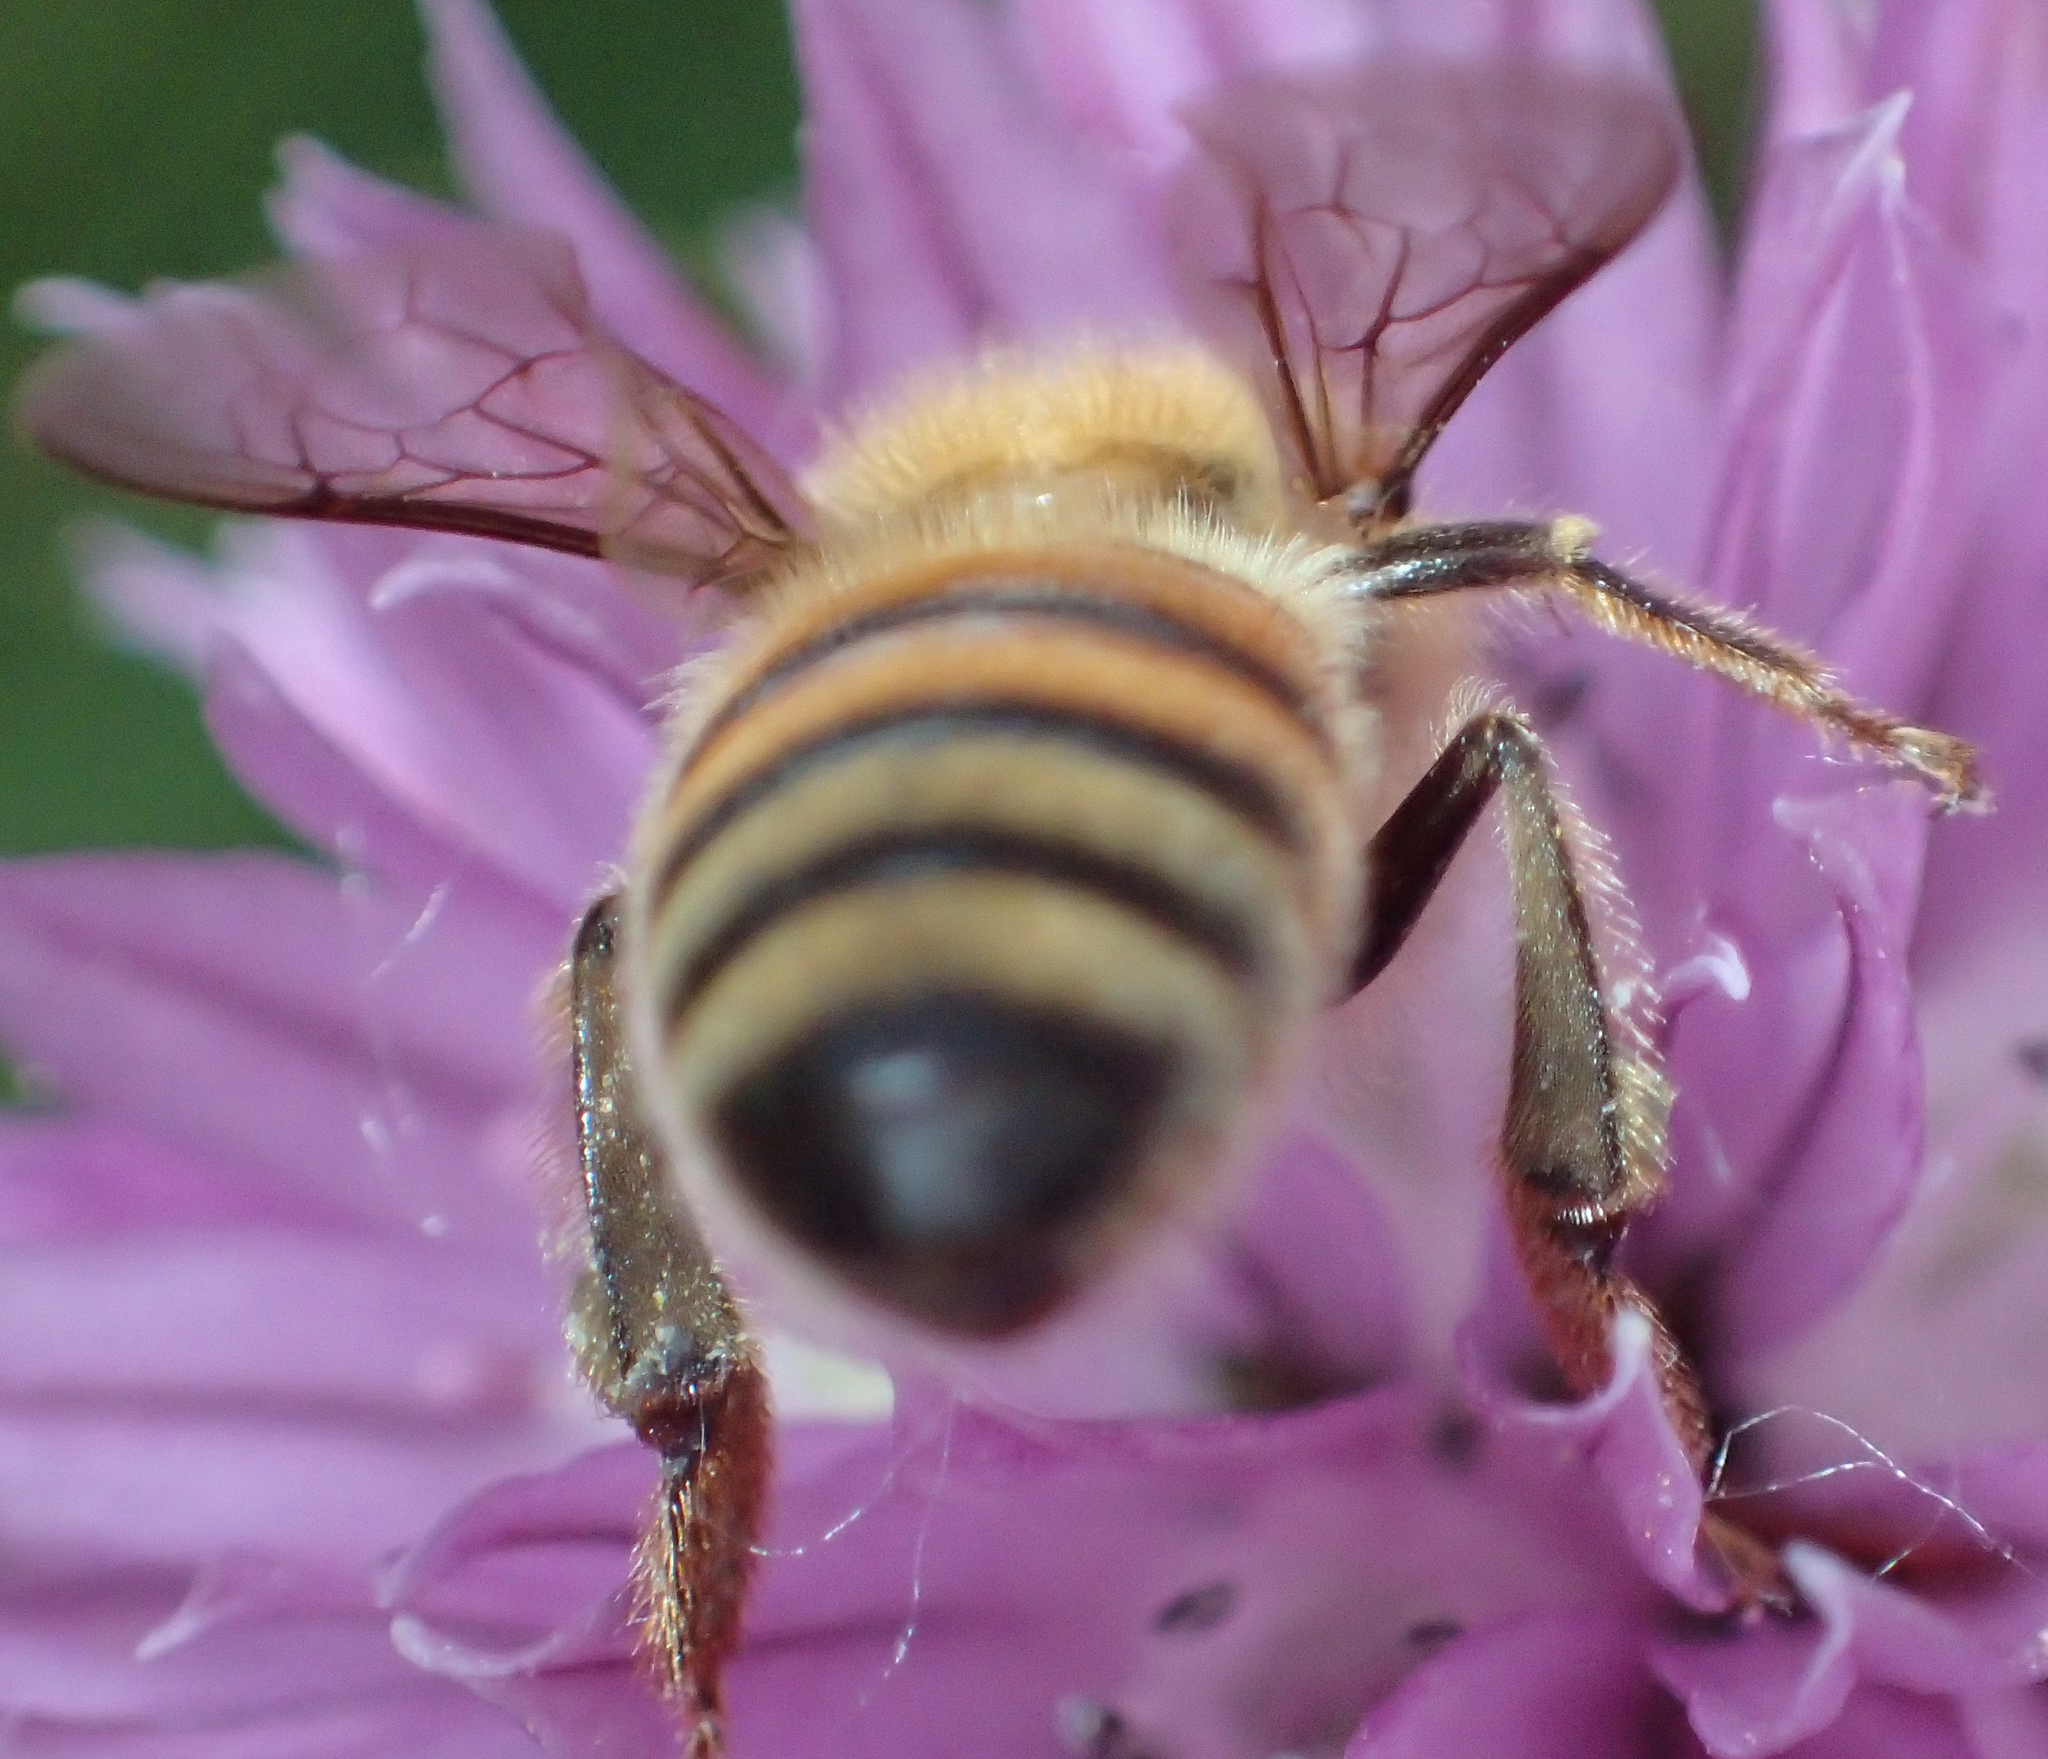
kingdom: Animalia
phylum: Arthropoda
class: Insecta
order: Hymenoptera
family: Apidae
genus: Apis
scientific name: Apis mellifera
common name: Honey bee
